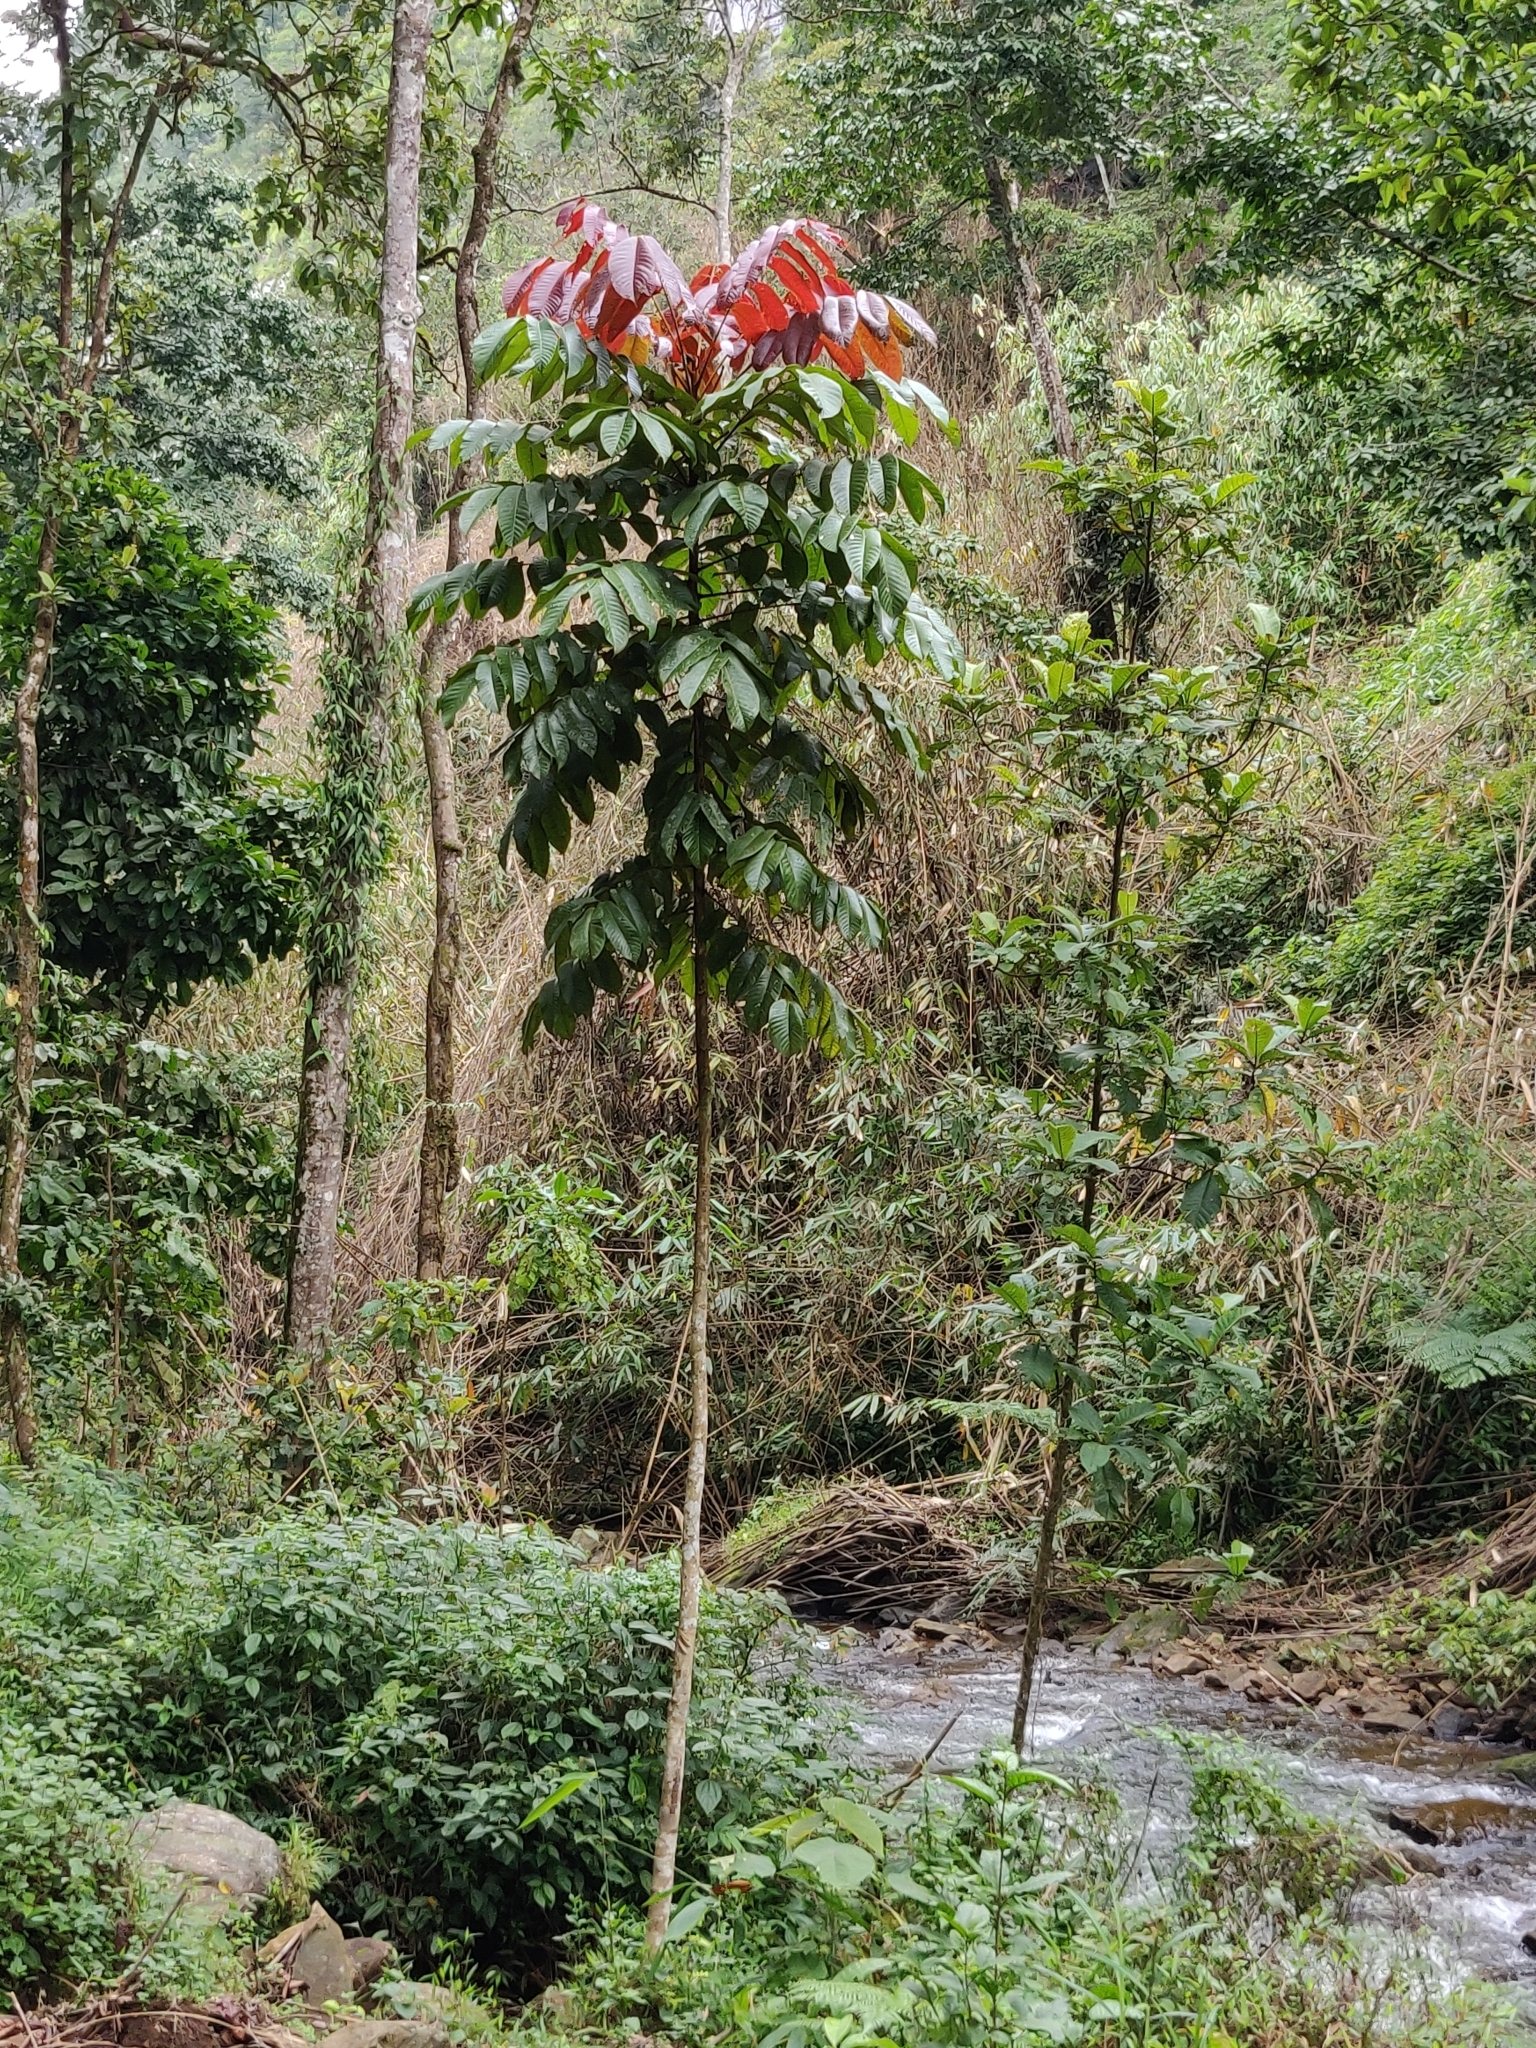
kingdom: Plantae
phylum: Tracheophyta
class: Magnoliopsida
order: Sapindales
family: Burseraceae
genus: Canarium
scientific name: Canarium strictum
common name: Indian white-mahogany
